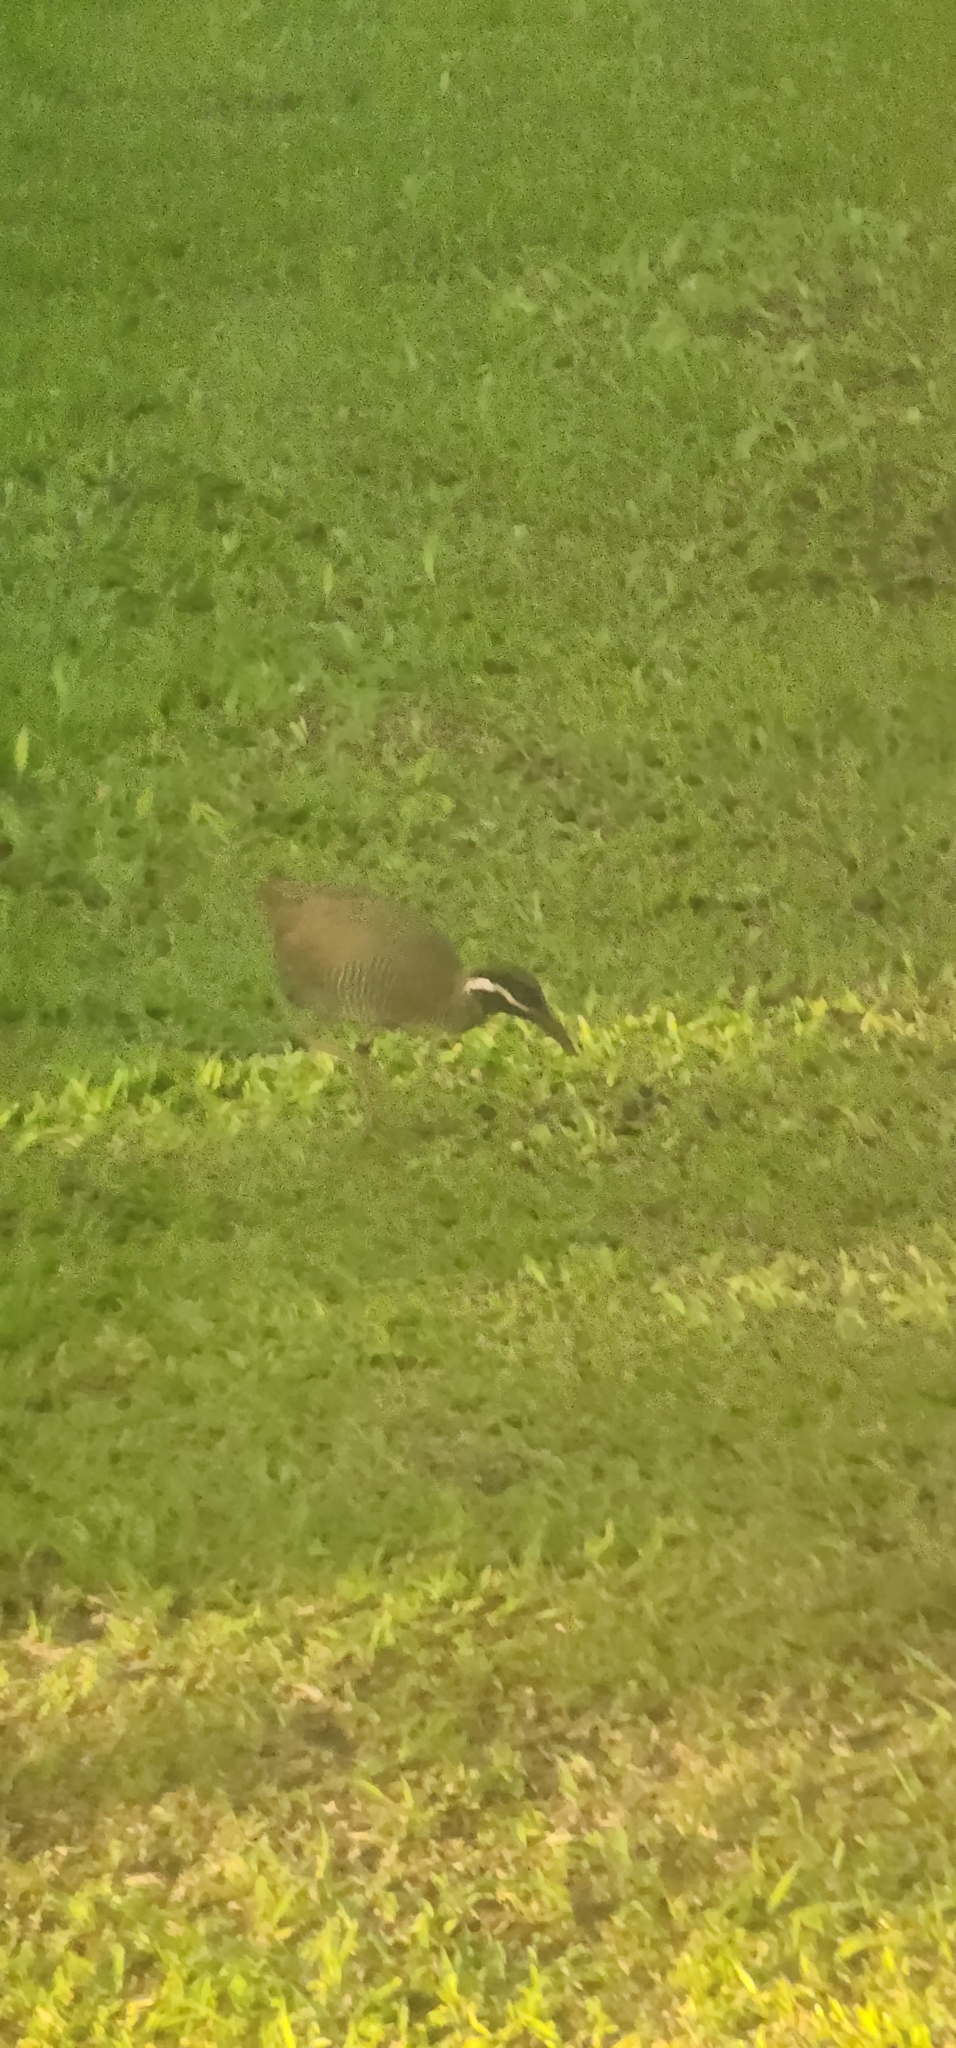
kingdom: Animalia
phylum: Chordata
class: Aves
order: Gruiformes
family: Rallidae
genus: Gallirallus
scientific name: Gallirallus torquatus
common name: Barred rail
